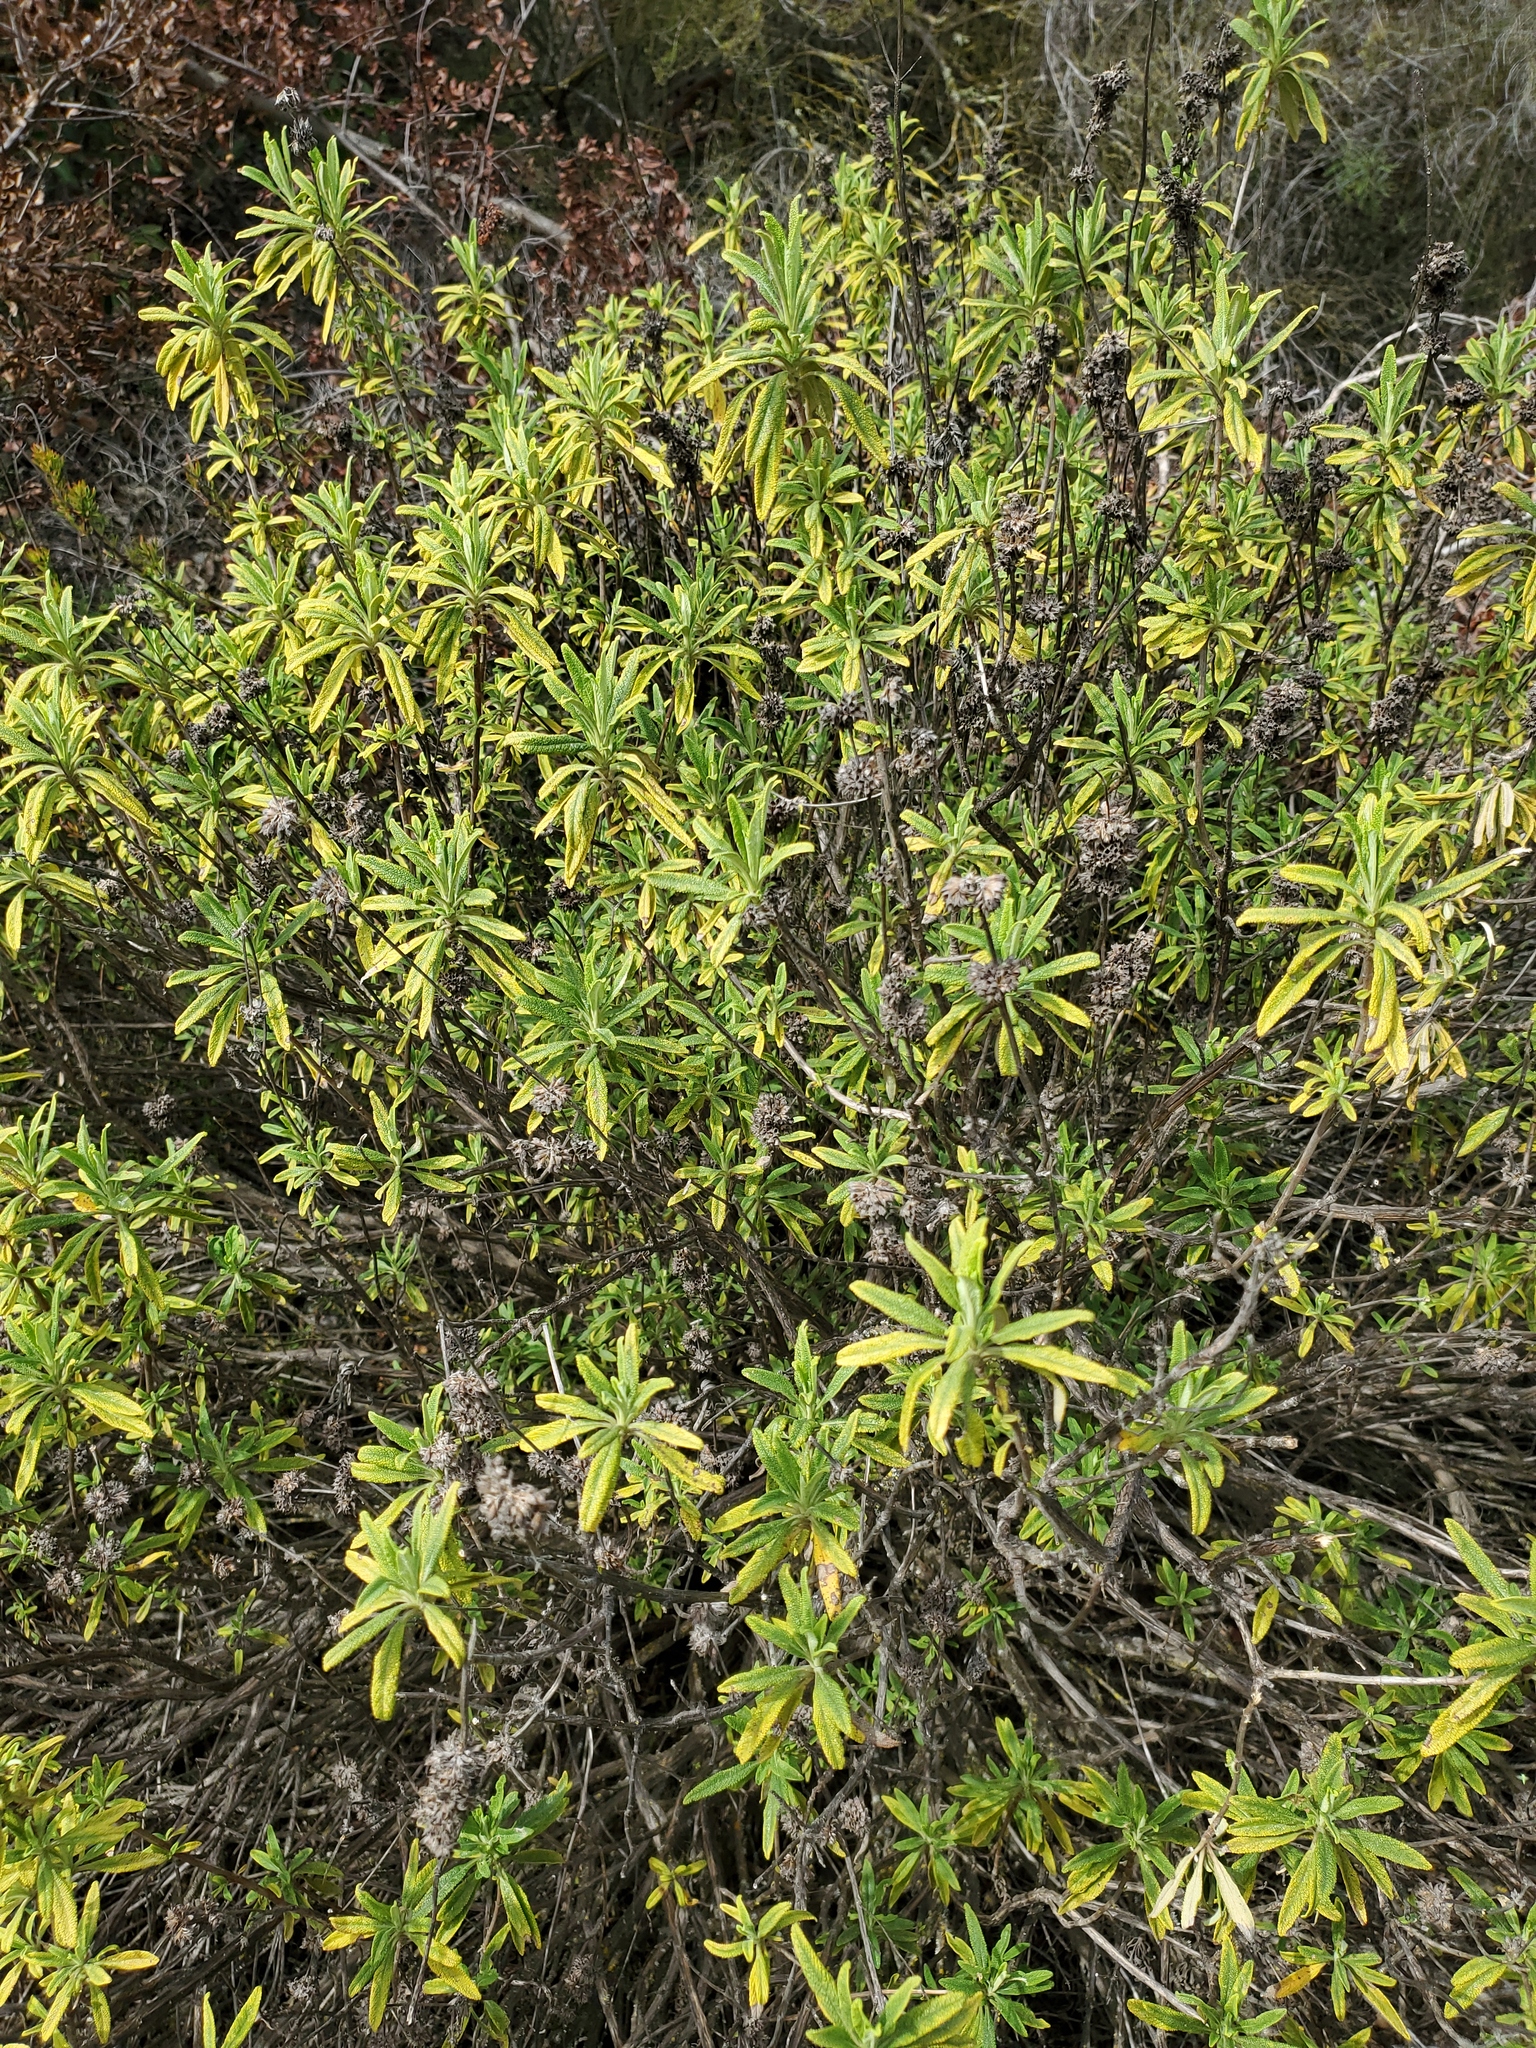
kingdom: Plantae
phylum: Tracheophyta
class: Magnoliopsida
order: Lamiales
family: Lamiaceae
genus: Salvia
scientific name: Salvia mellifera
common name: Black sage
